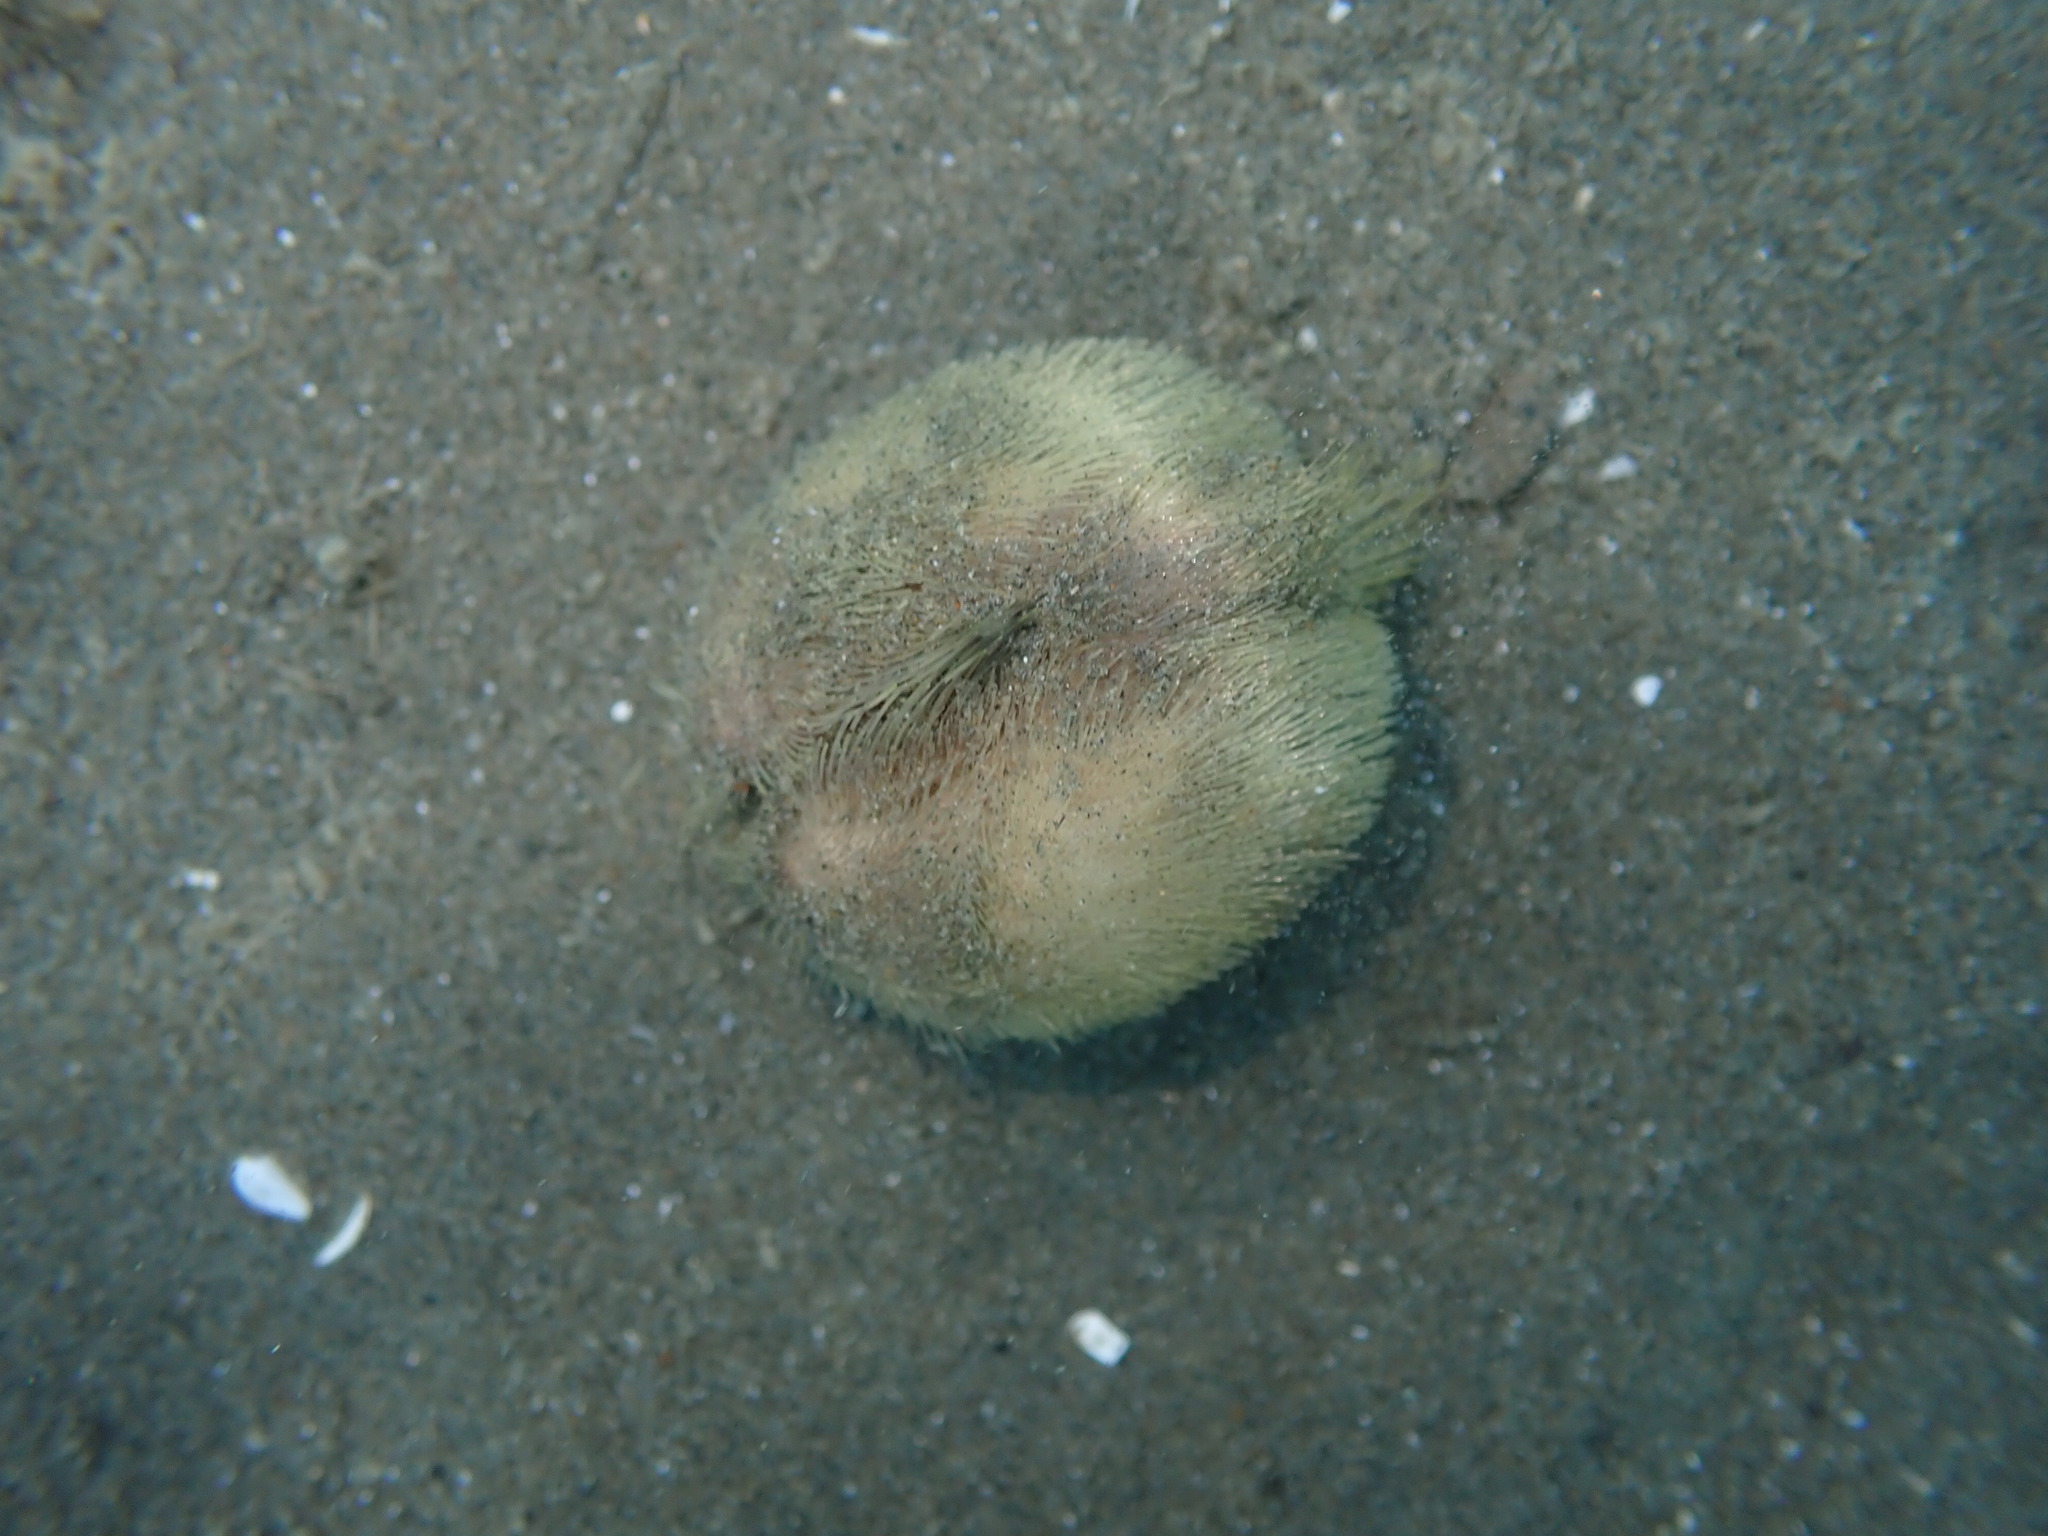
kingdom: Animalia
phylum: Echinodermata
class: Echinoidea
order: Spatangoida
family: Loveniidae
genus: Echinocardium
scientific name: Echinocardium cordatum
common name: Heart-urchin
